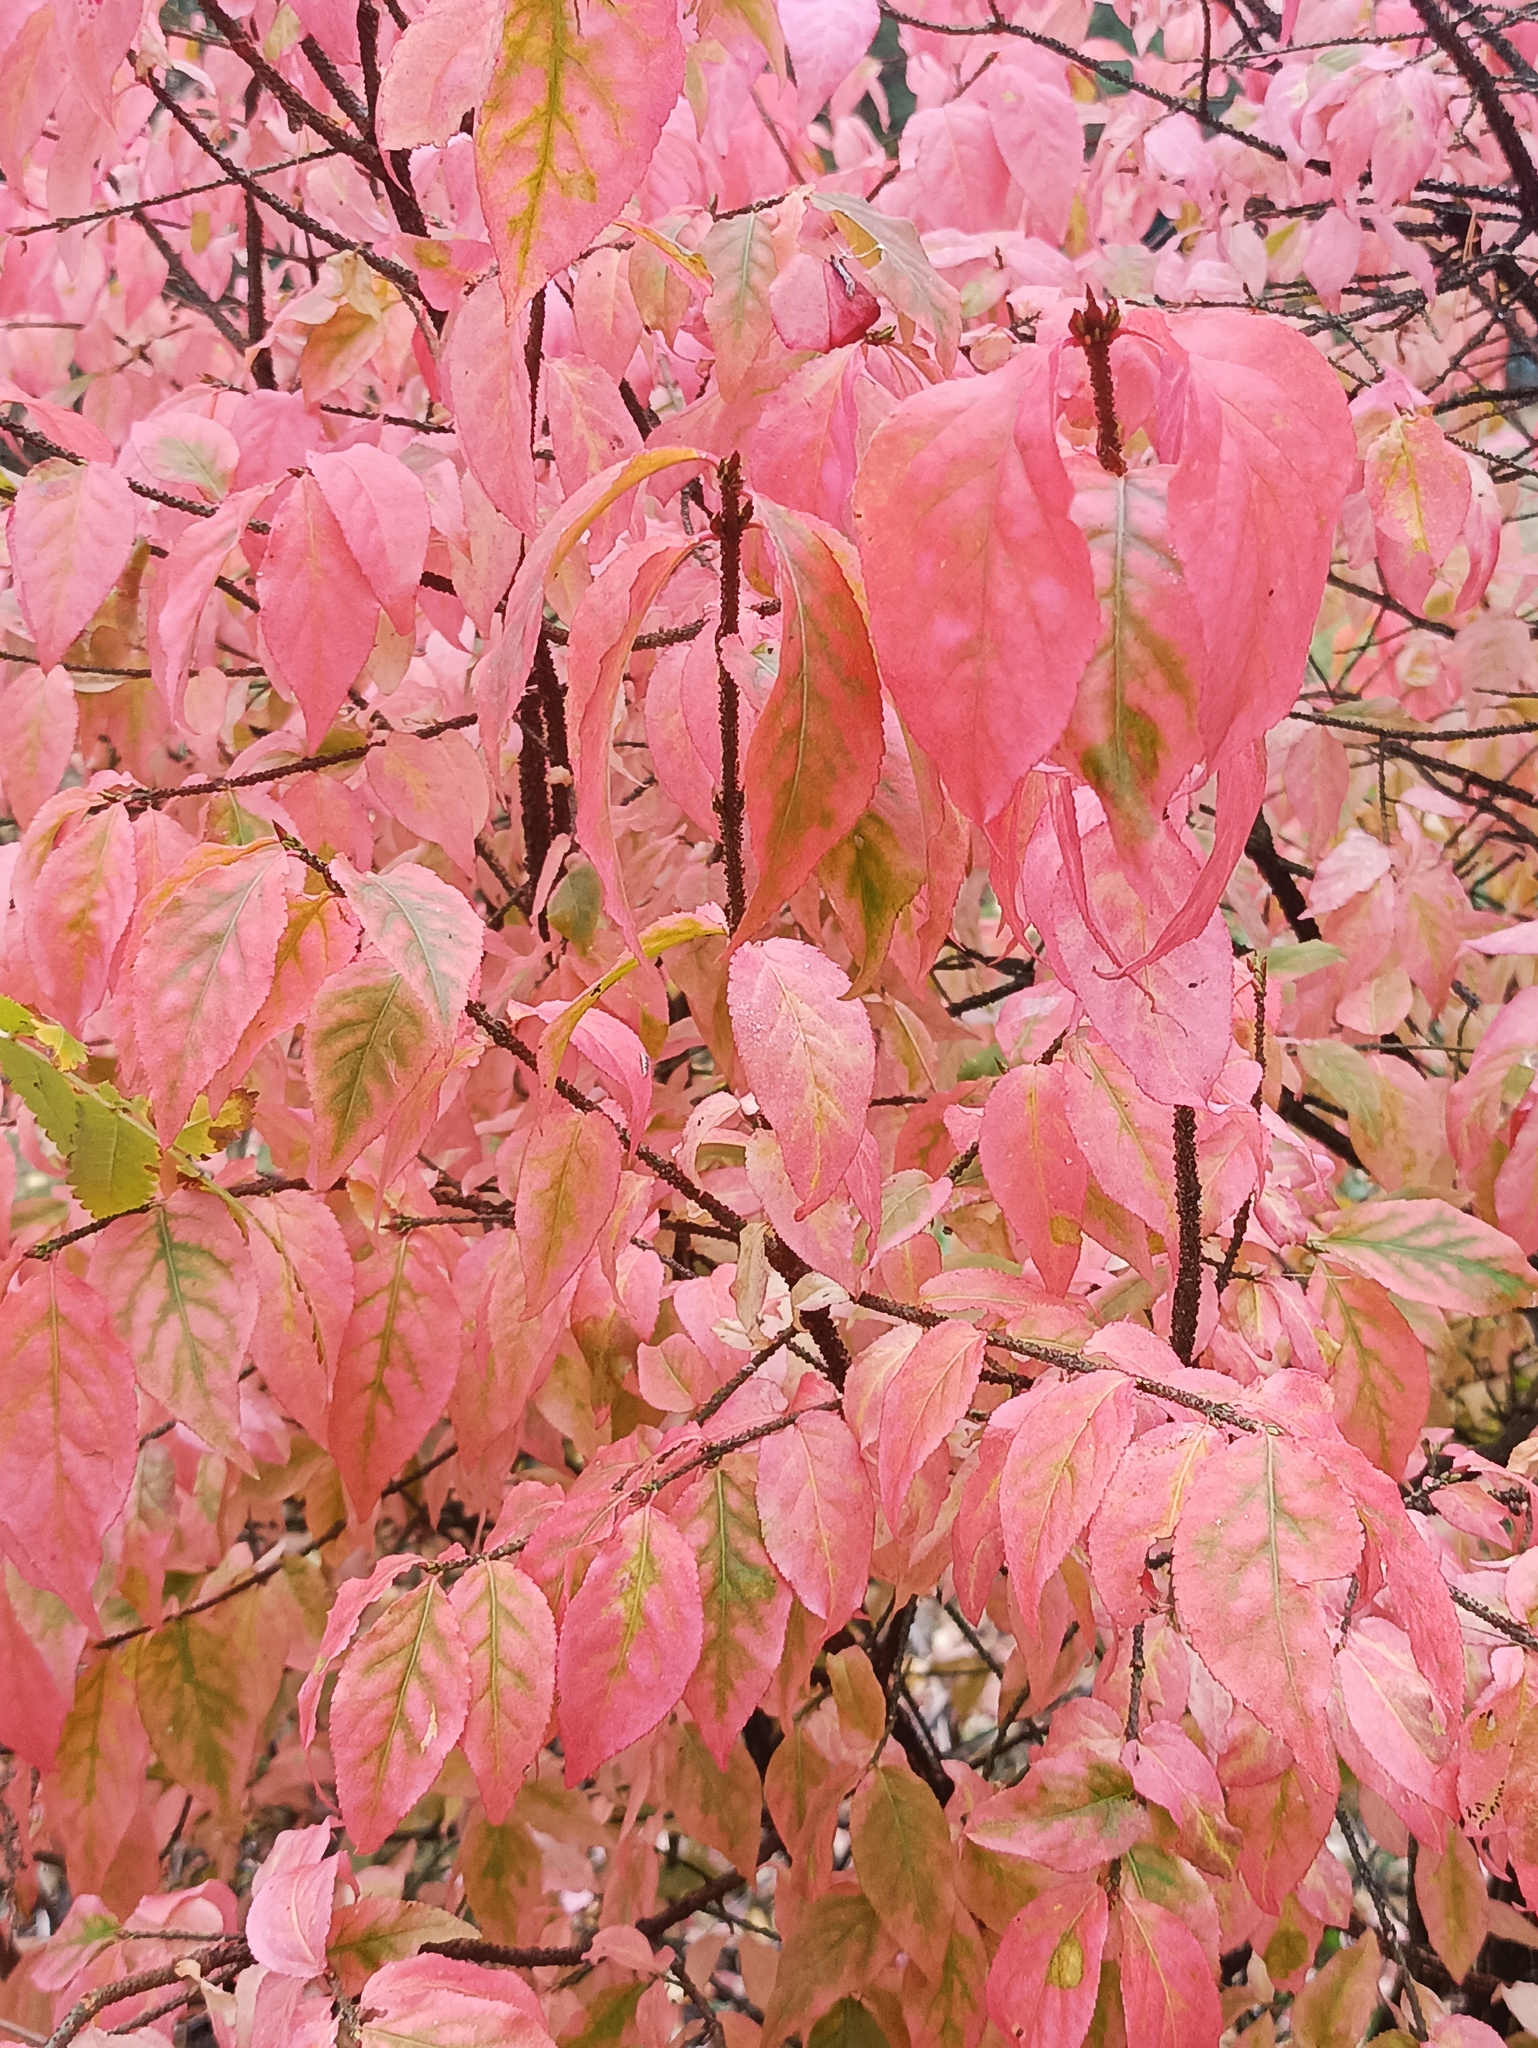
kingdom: Plantae
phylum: Tracheophyta
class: Magnoliopsida
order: Celastrales
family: Celastraceae
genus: Euonymus
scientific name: Euonymus verrucosus
